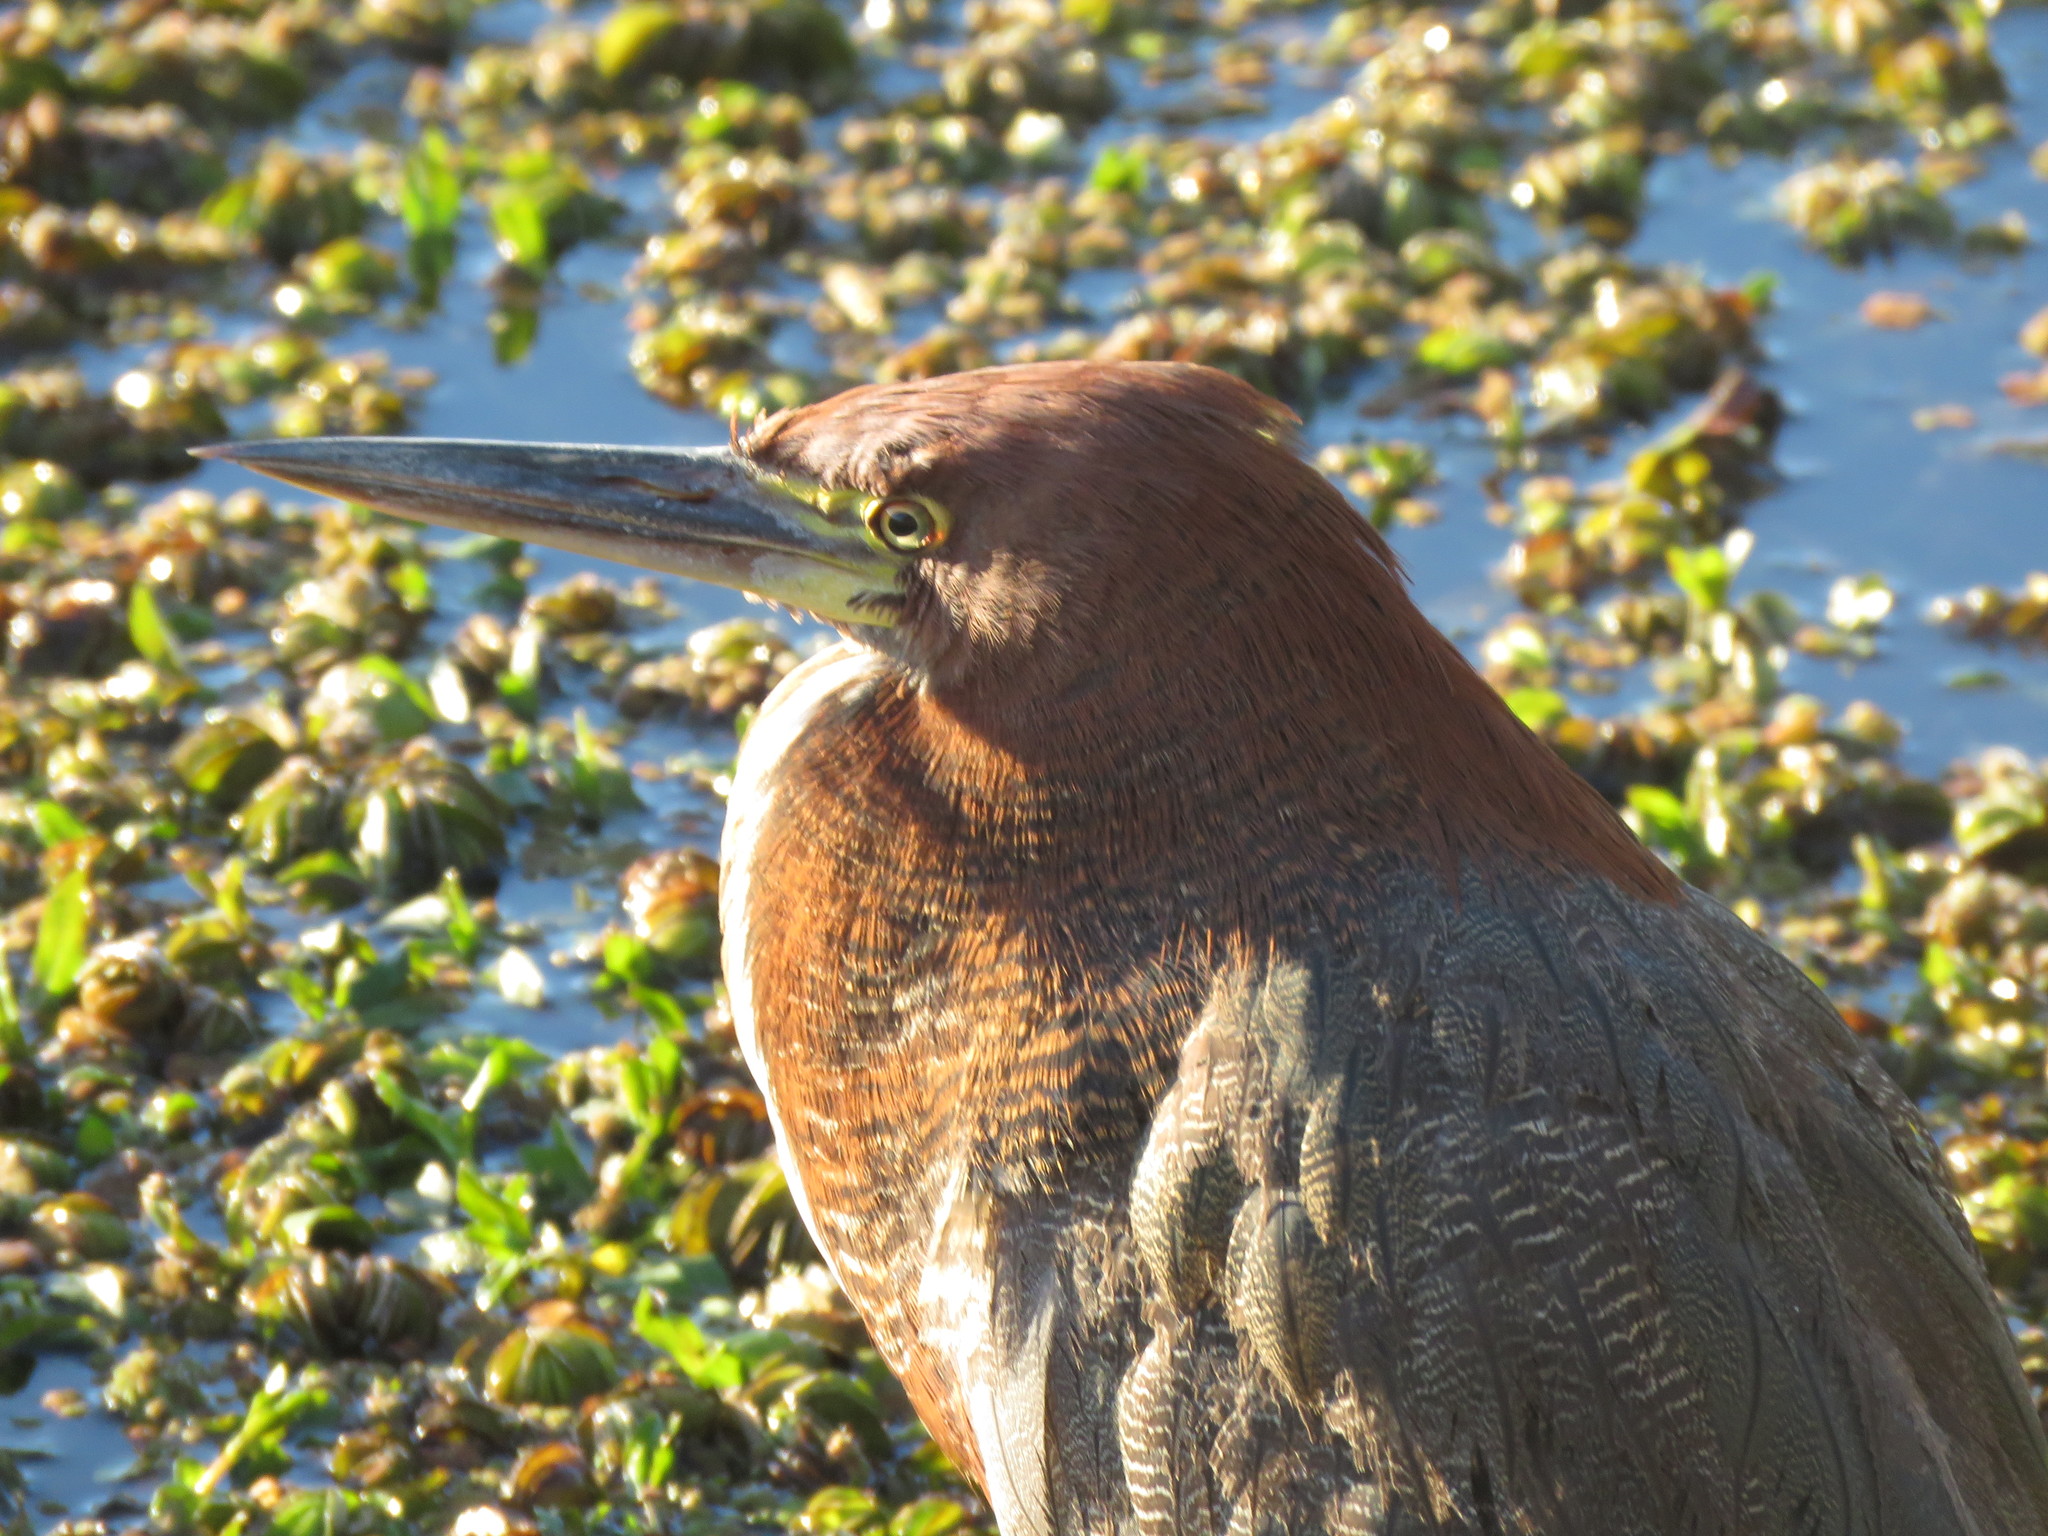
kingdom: Animalia
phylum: Chordata
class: Aves
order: Pelecaniformes
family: Ardeidae
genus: Tigrisoma
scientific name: Tigrisoma lineatum
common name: Rufescent tiger-heron
